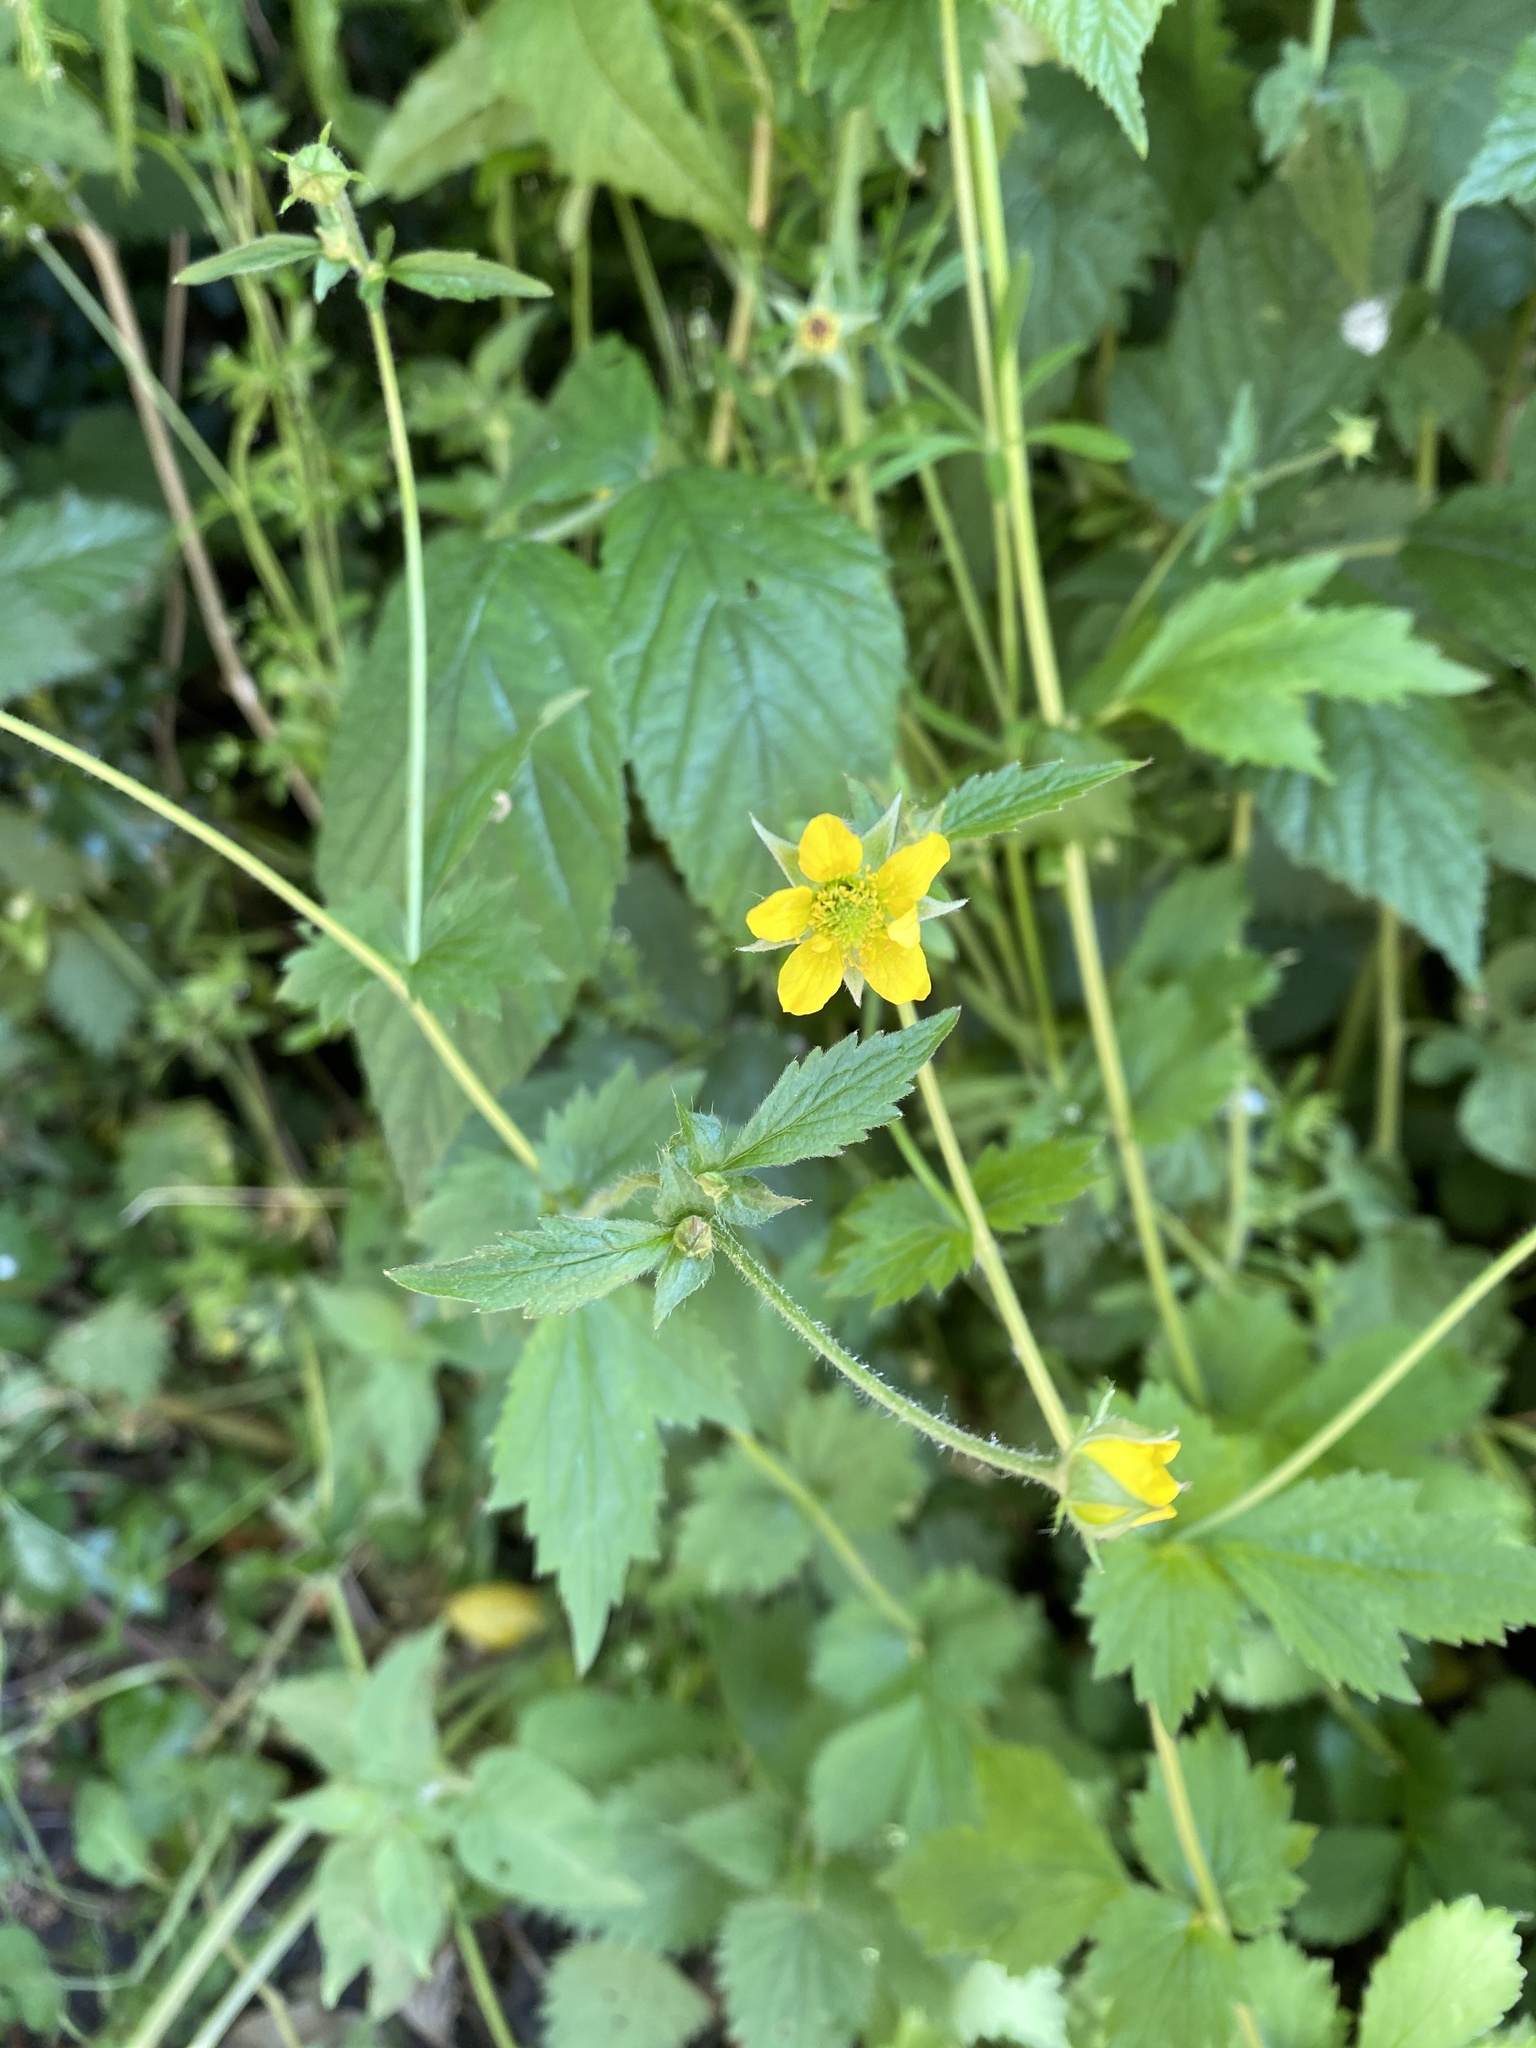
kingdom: Plantae
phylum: Tracheophyta
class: Magnoliopsida
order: Rosales
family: Rosaceae
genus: Geum
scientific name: Geum urbanum
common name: Wood avens
